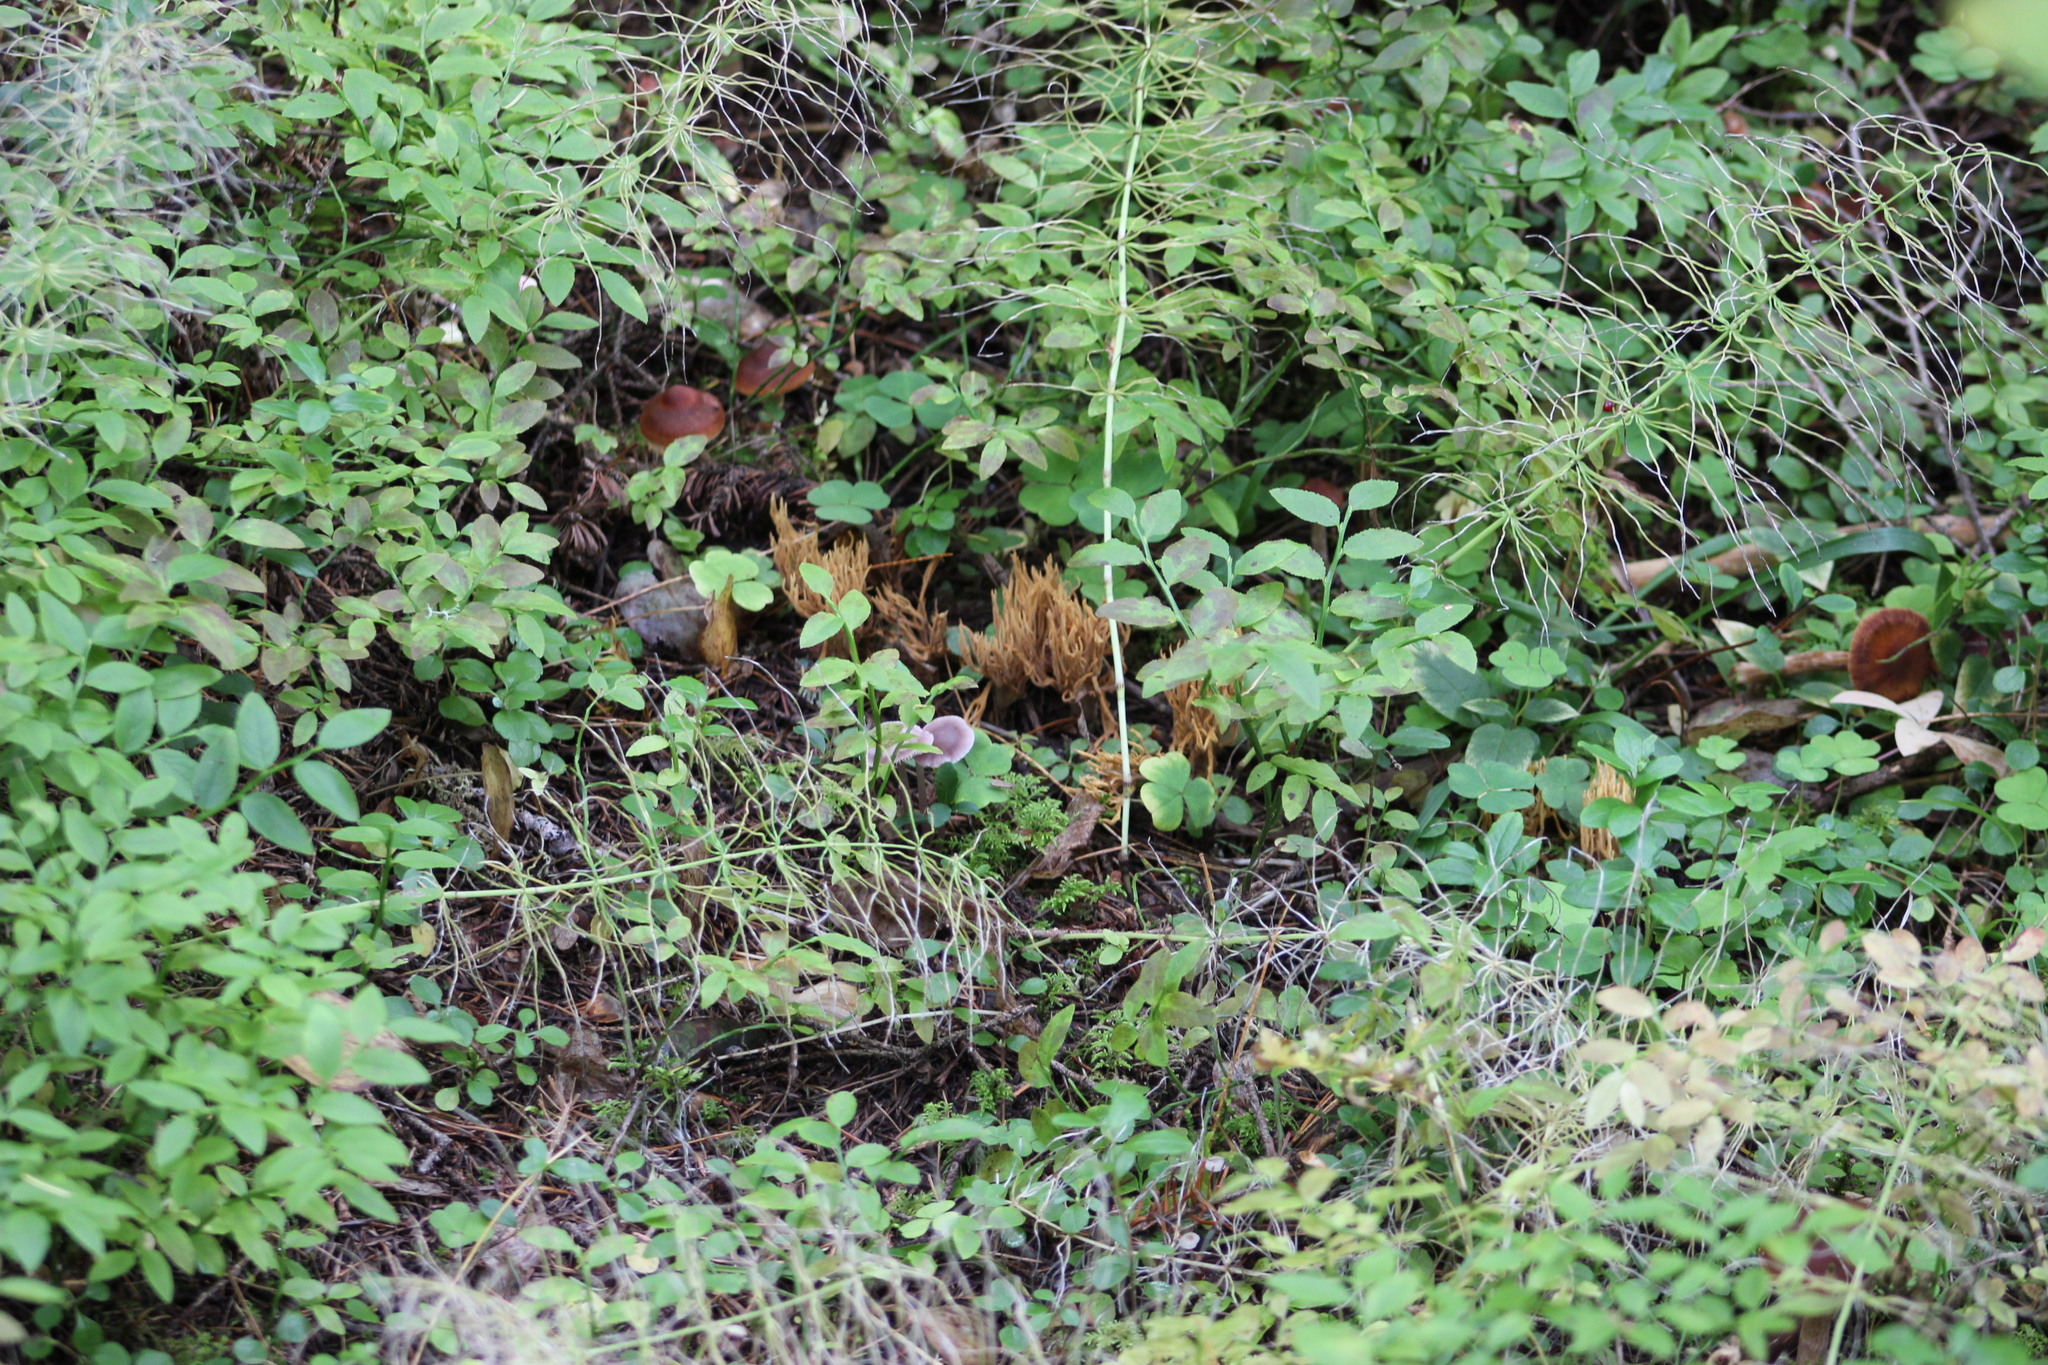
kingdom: Plantae
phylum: Tracheophyta
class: Magnoliopsida
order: Ericales
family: Ericaceae
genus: Vaccinium
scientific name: Vaccinium myrtillus
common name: Bilberry
